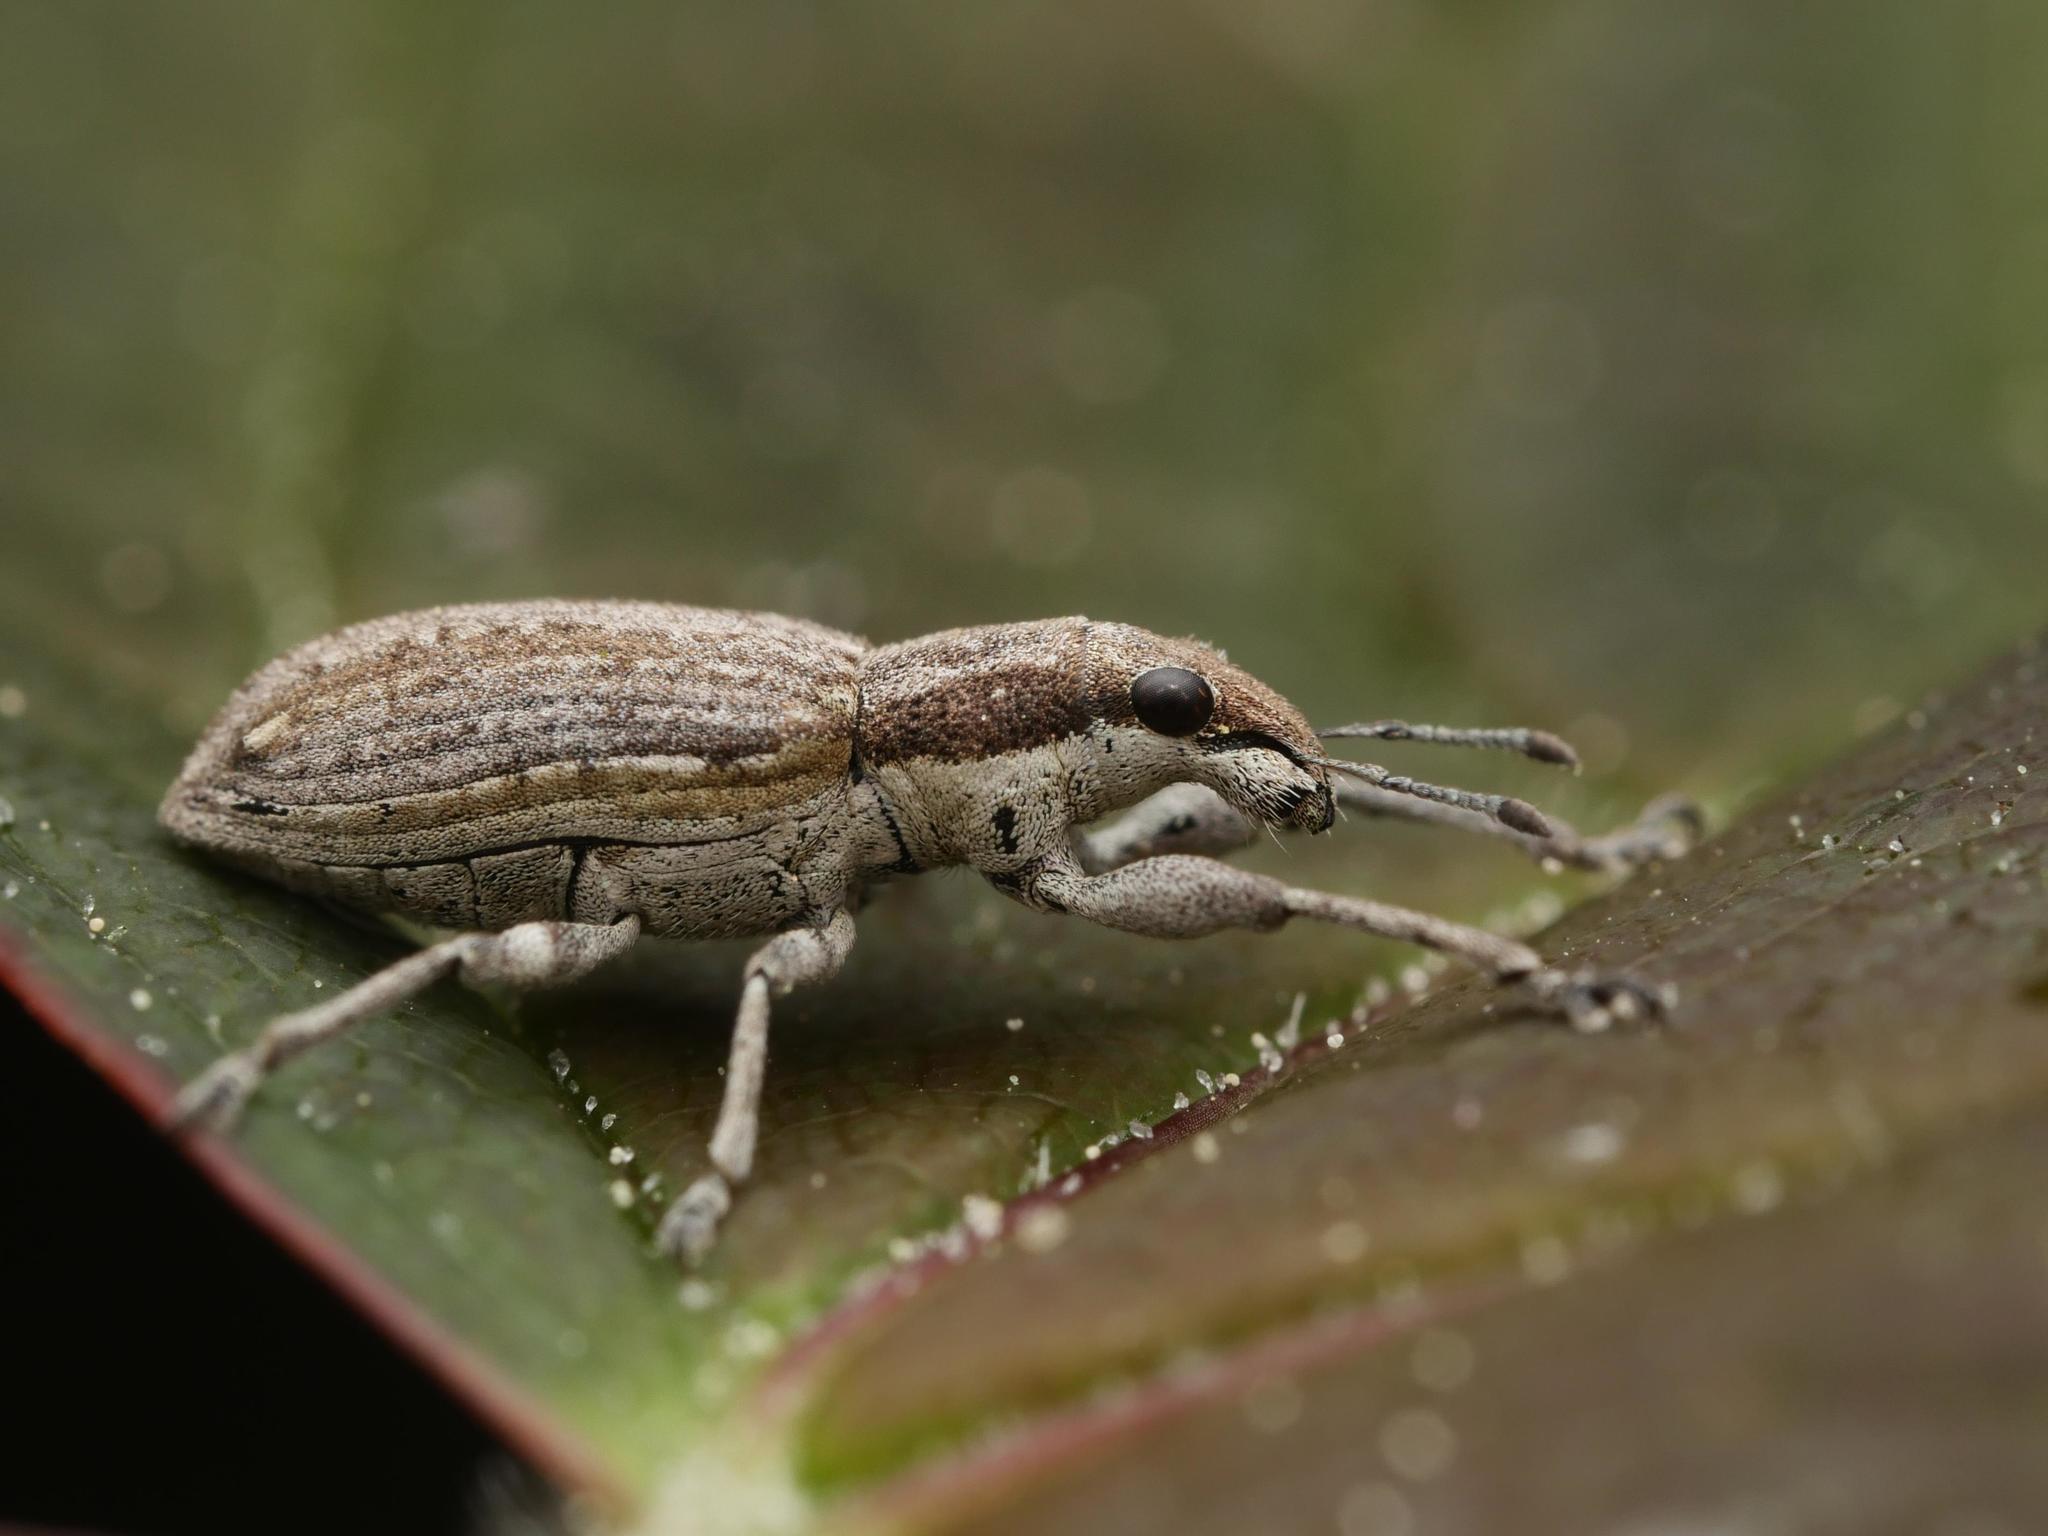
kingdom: Animalia
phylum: Arthropoda
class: Insecta
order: Coleoptera
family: Curculionidae
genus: Charagmus
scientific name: Charagmus griseus
